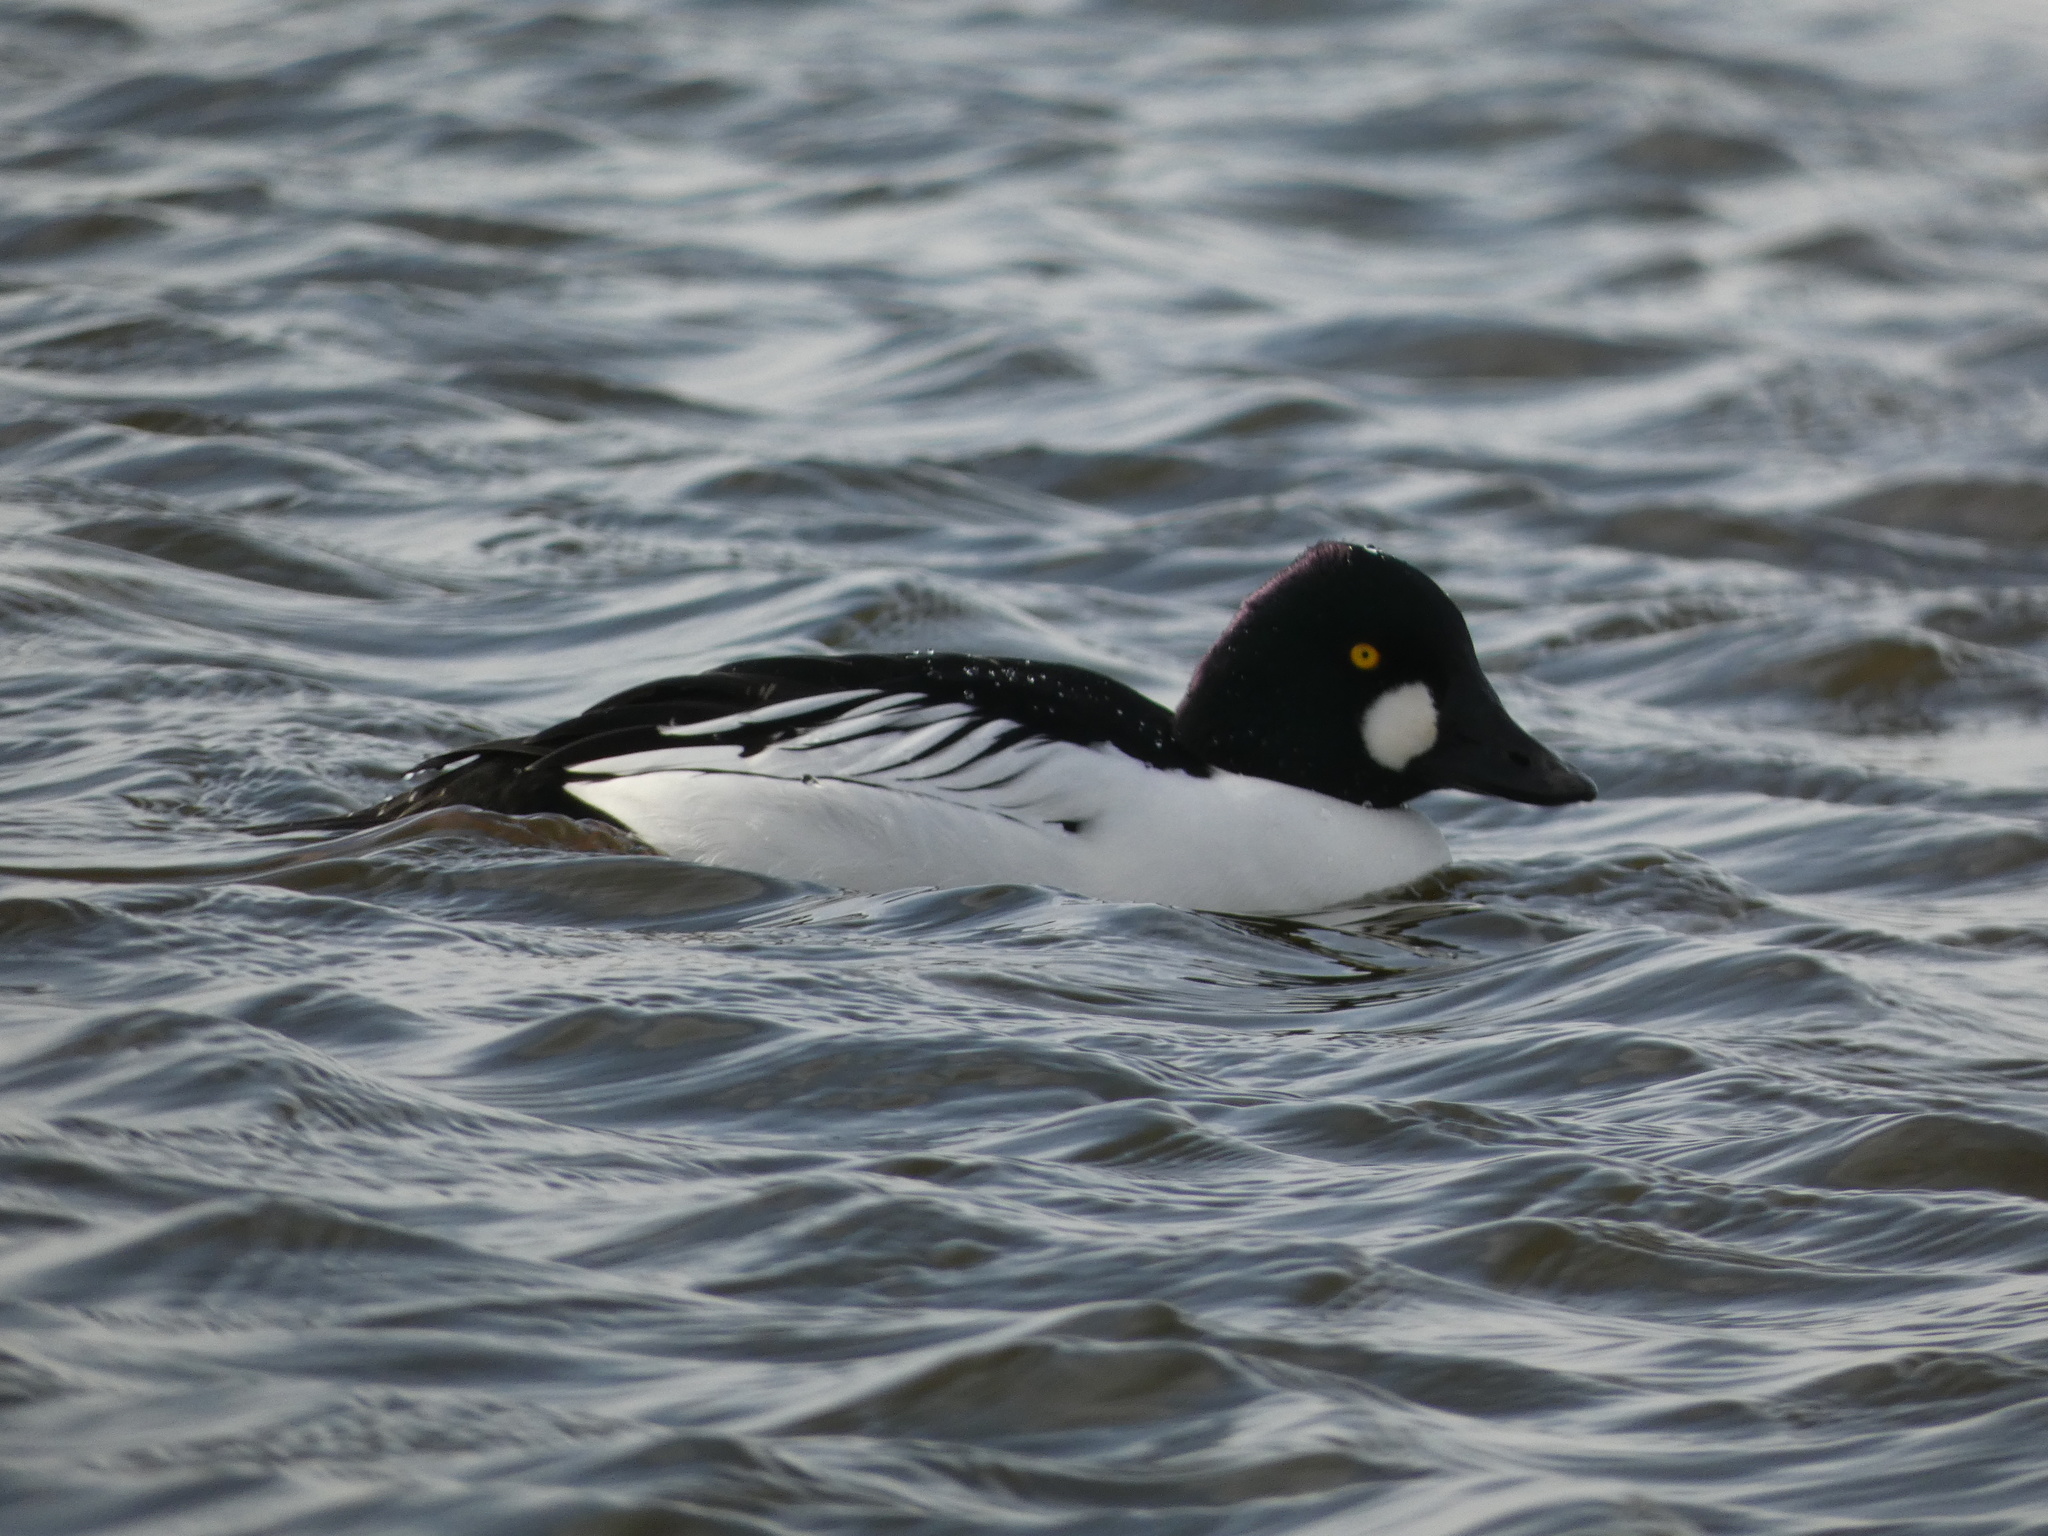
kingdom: Animalia
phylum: Chordata
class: Aves
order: Anseriformes
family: Anatidae
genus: Bucephala
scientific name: Bucephala clangula
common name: Common goldeneye
